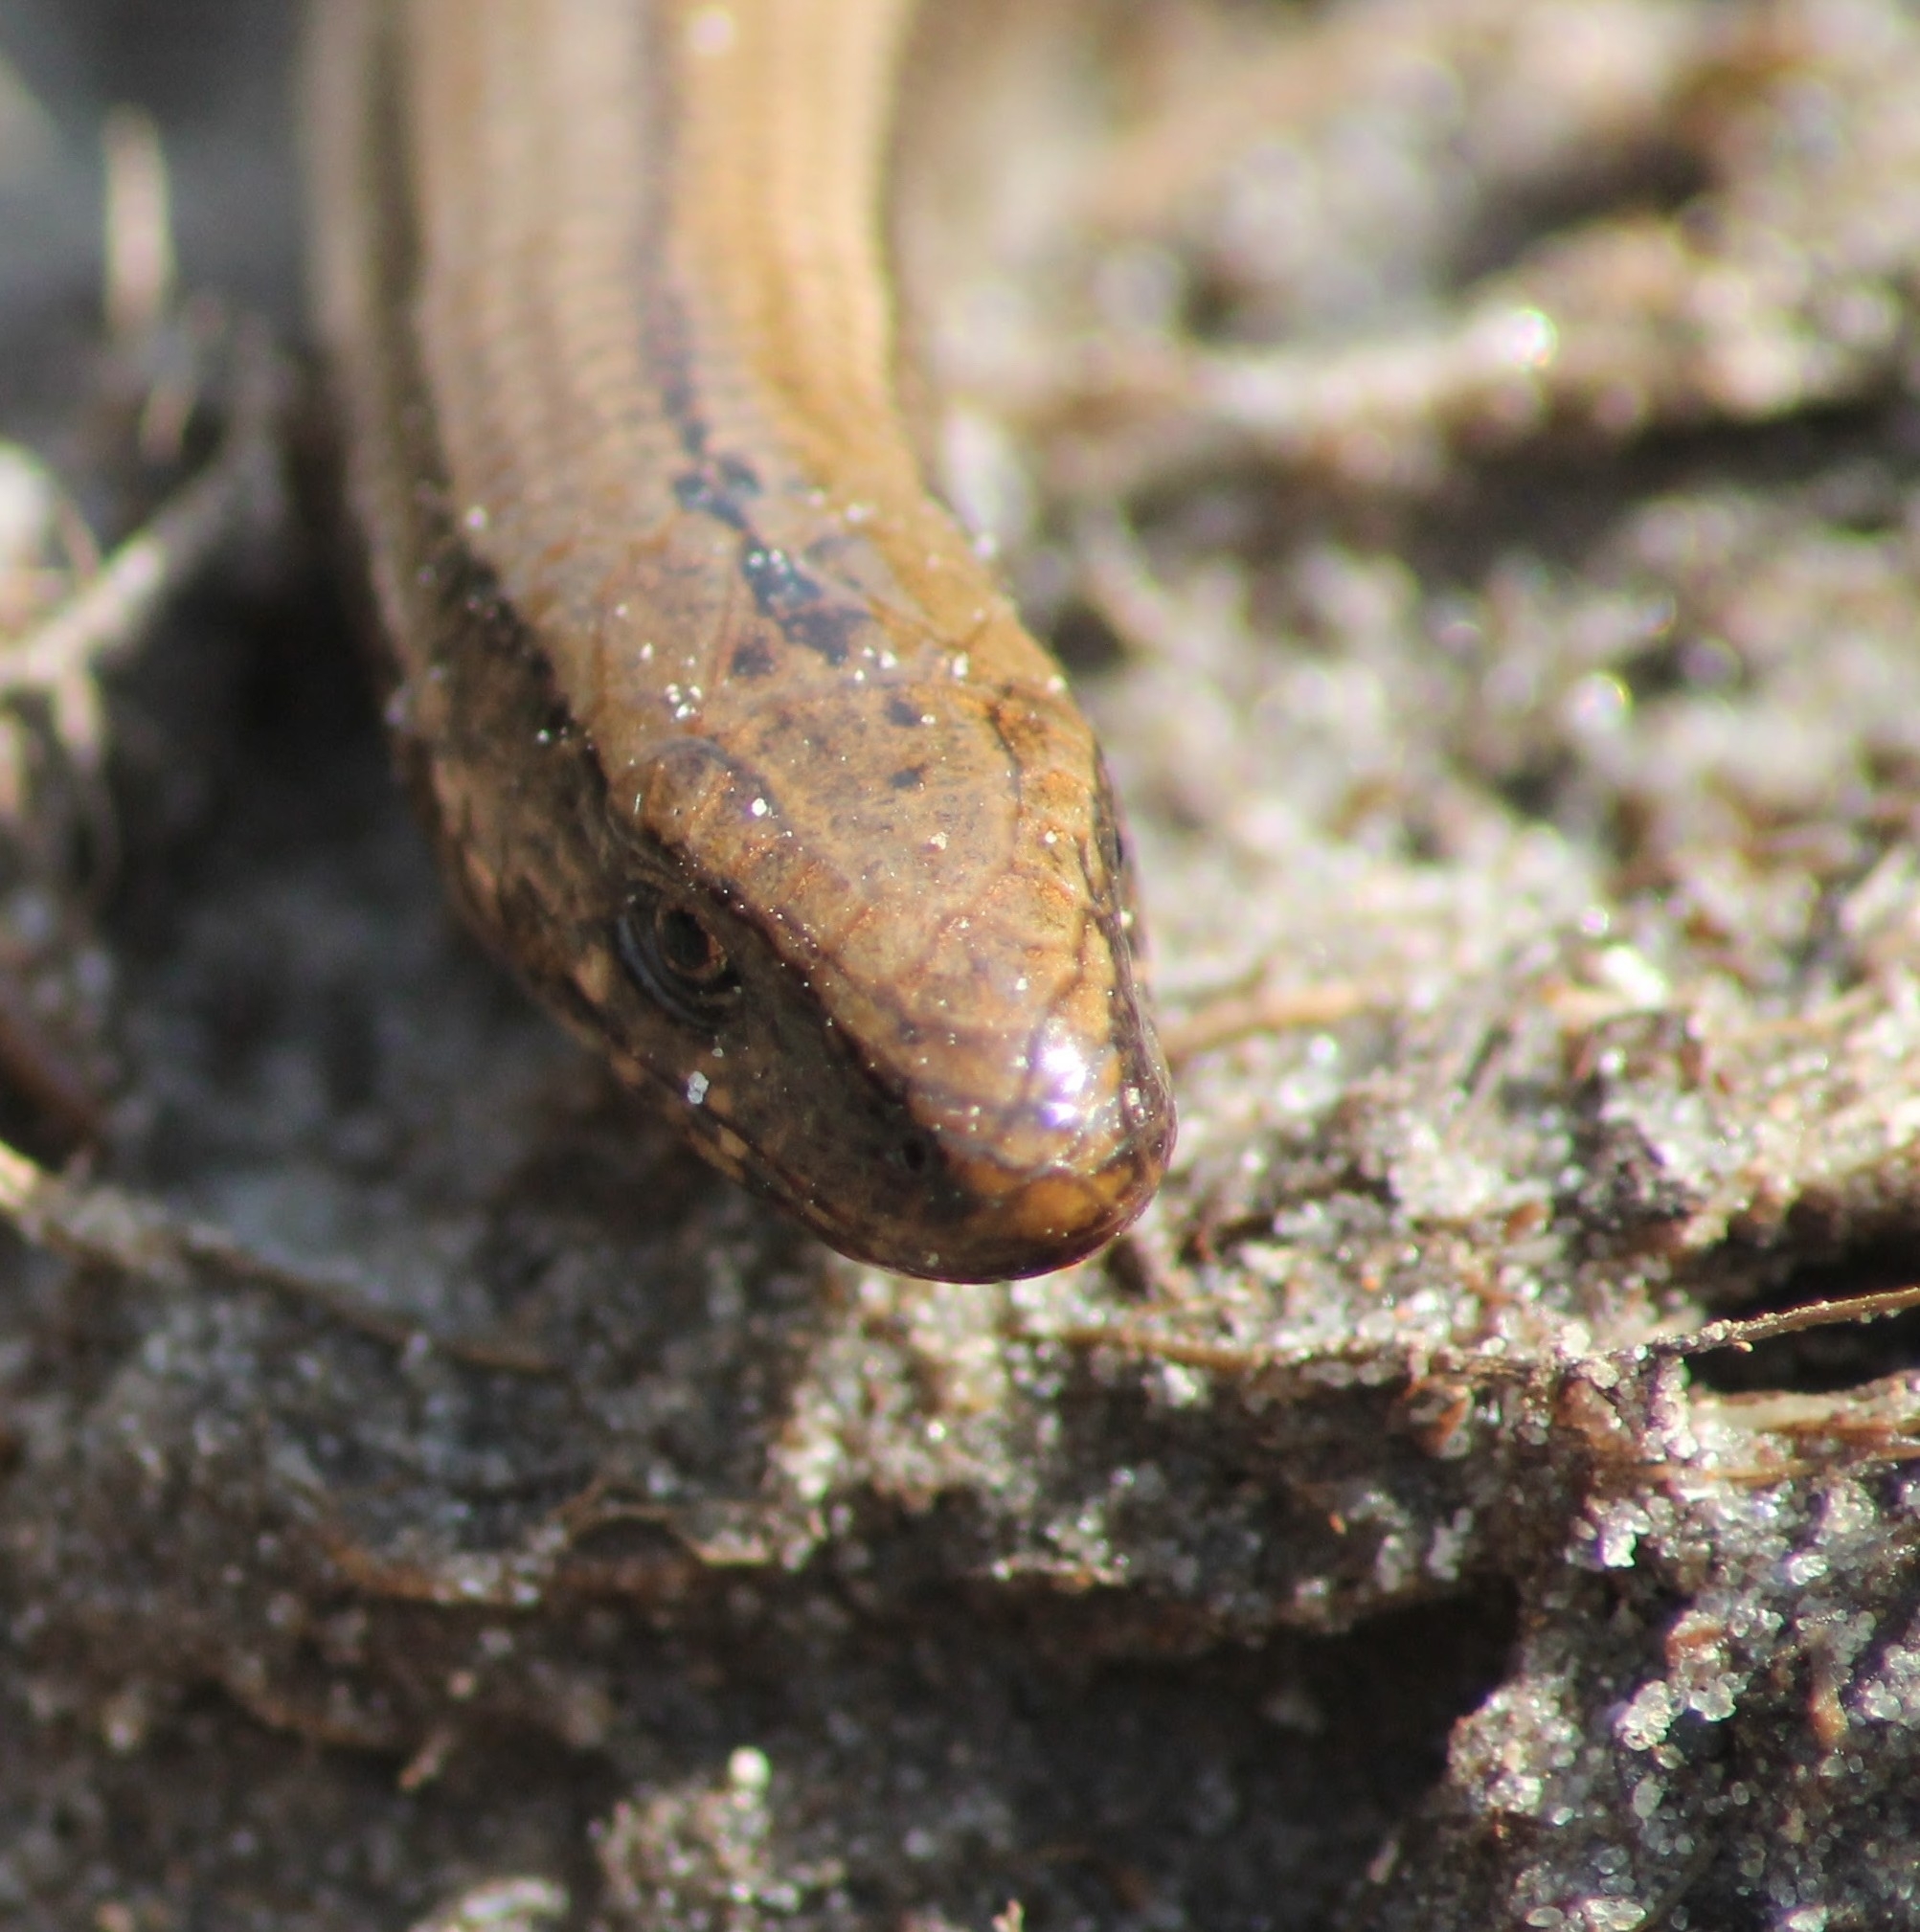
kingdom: Animalia
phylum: Chordata
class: Squamata
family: Anguidae
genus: Anguis
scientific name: Anguis colchica
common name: Slow worm
